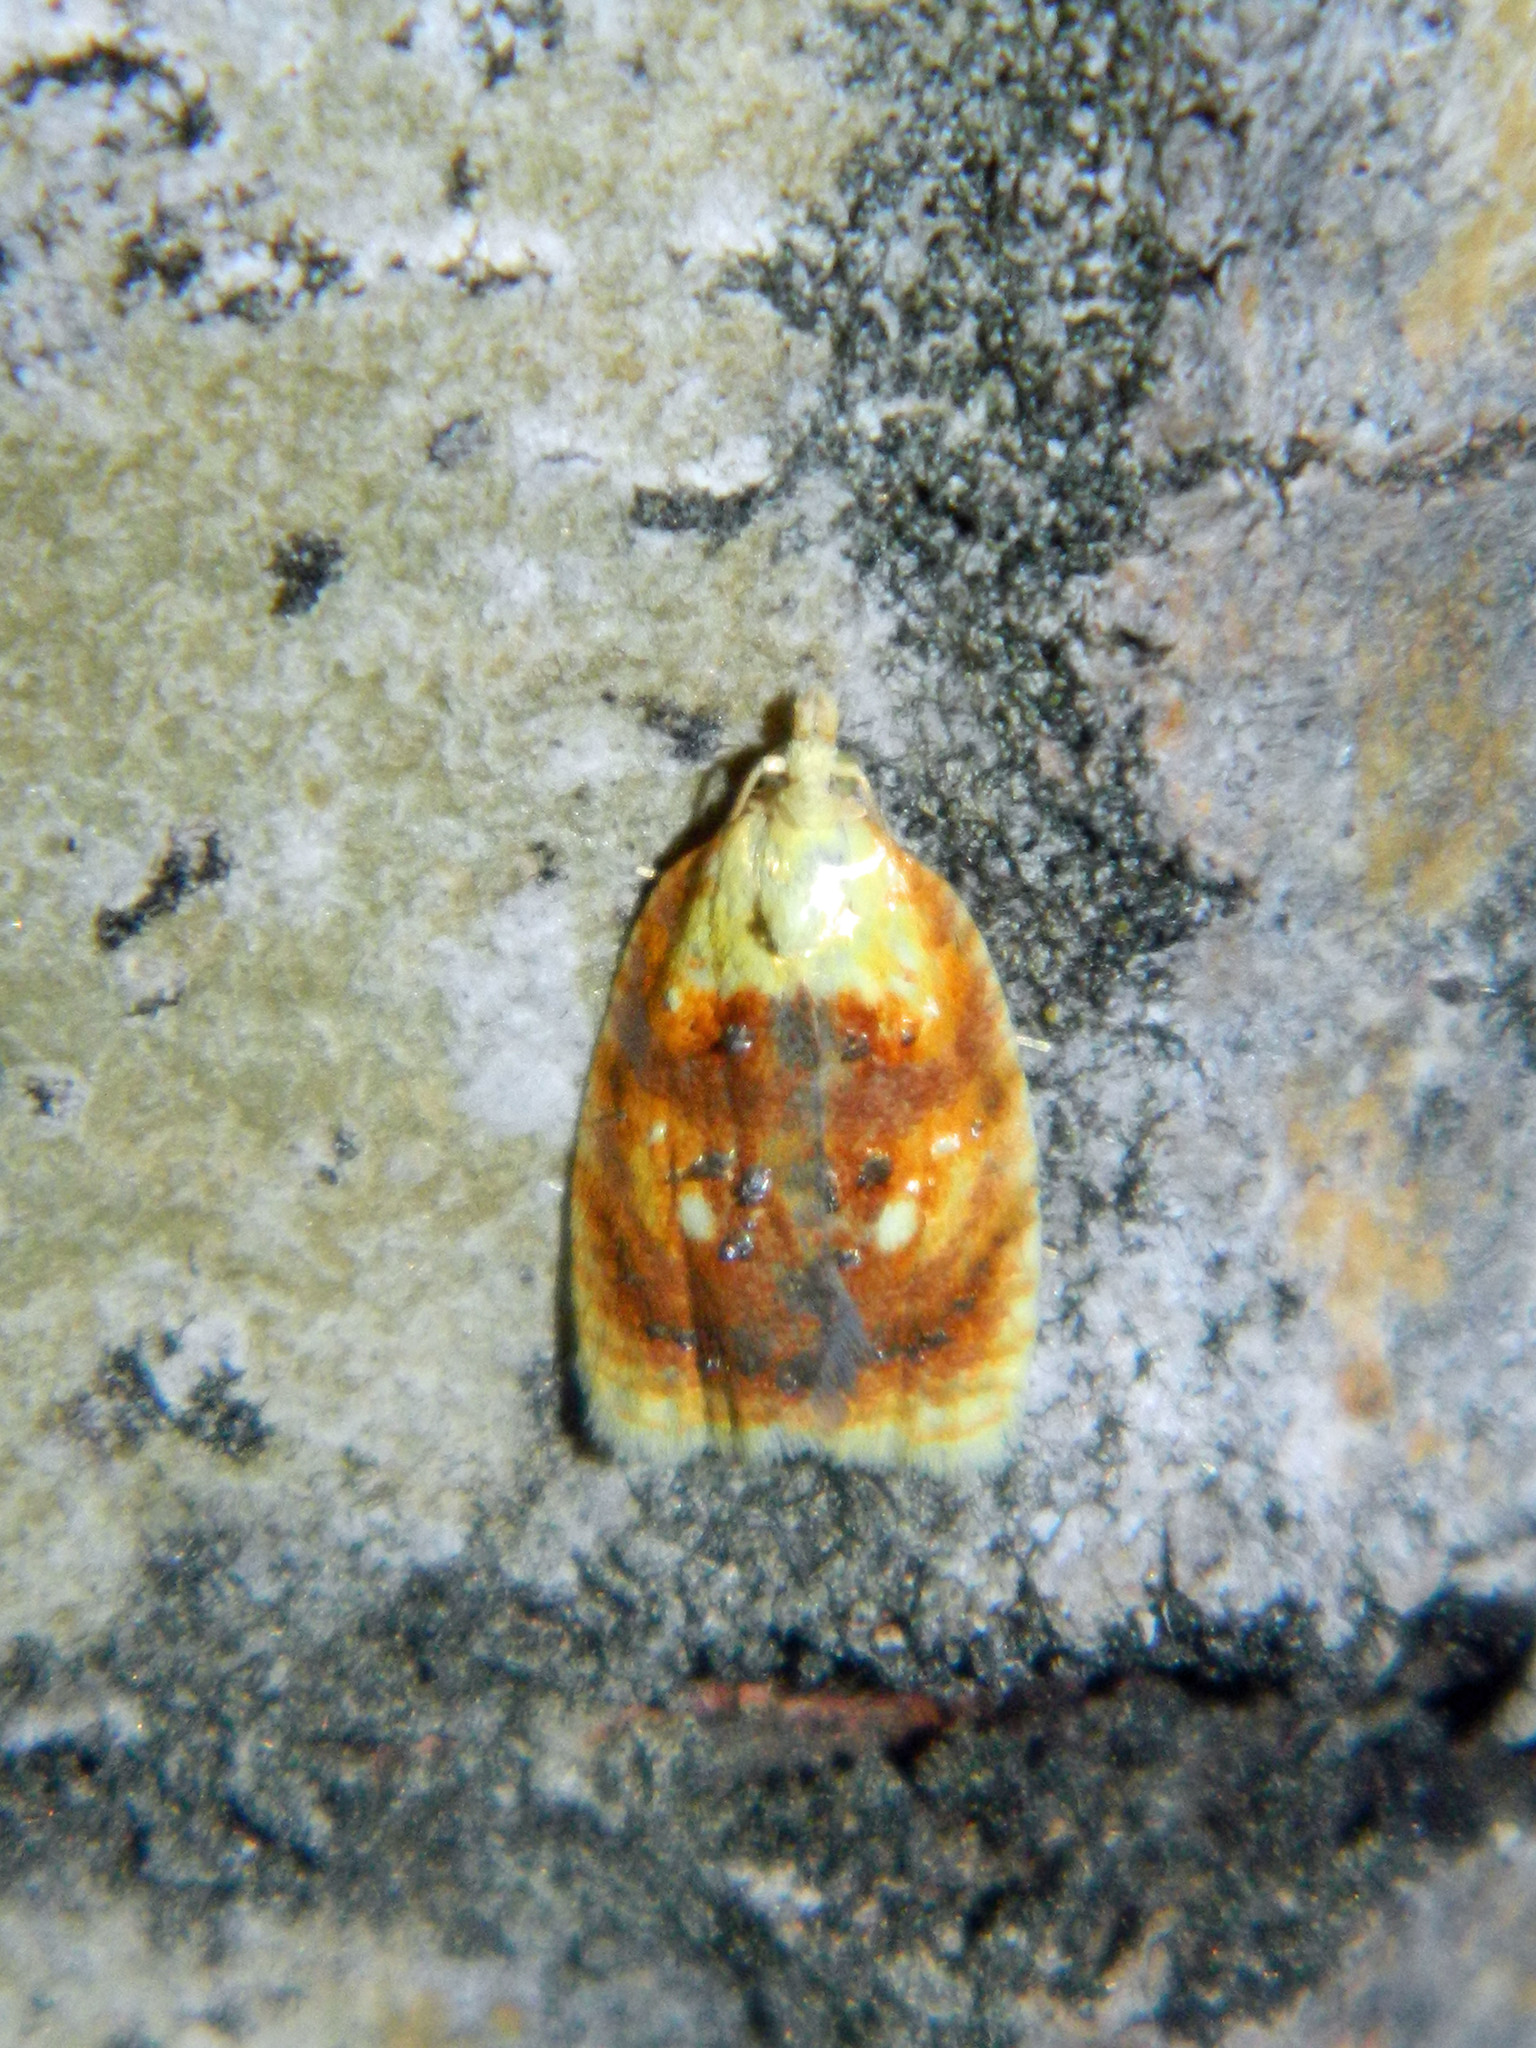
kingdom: Animalia
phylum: Arthropoda
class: Insecta
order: Lepidoptera
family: Tortricidae
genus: Acleris
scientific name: Acleris curvalana
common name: Blueberry leaftier moth
